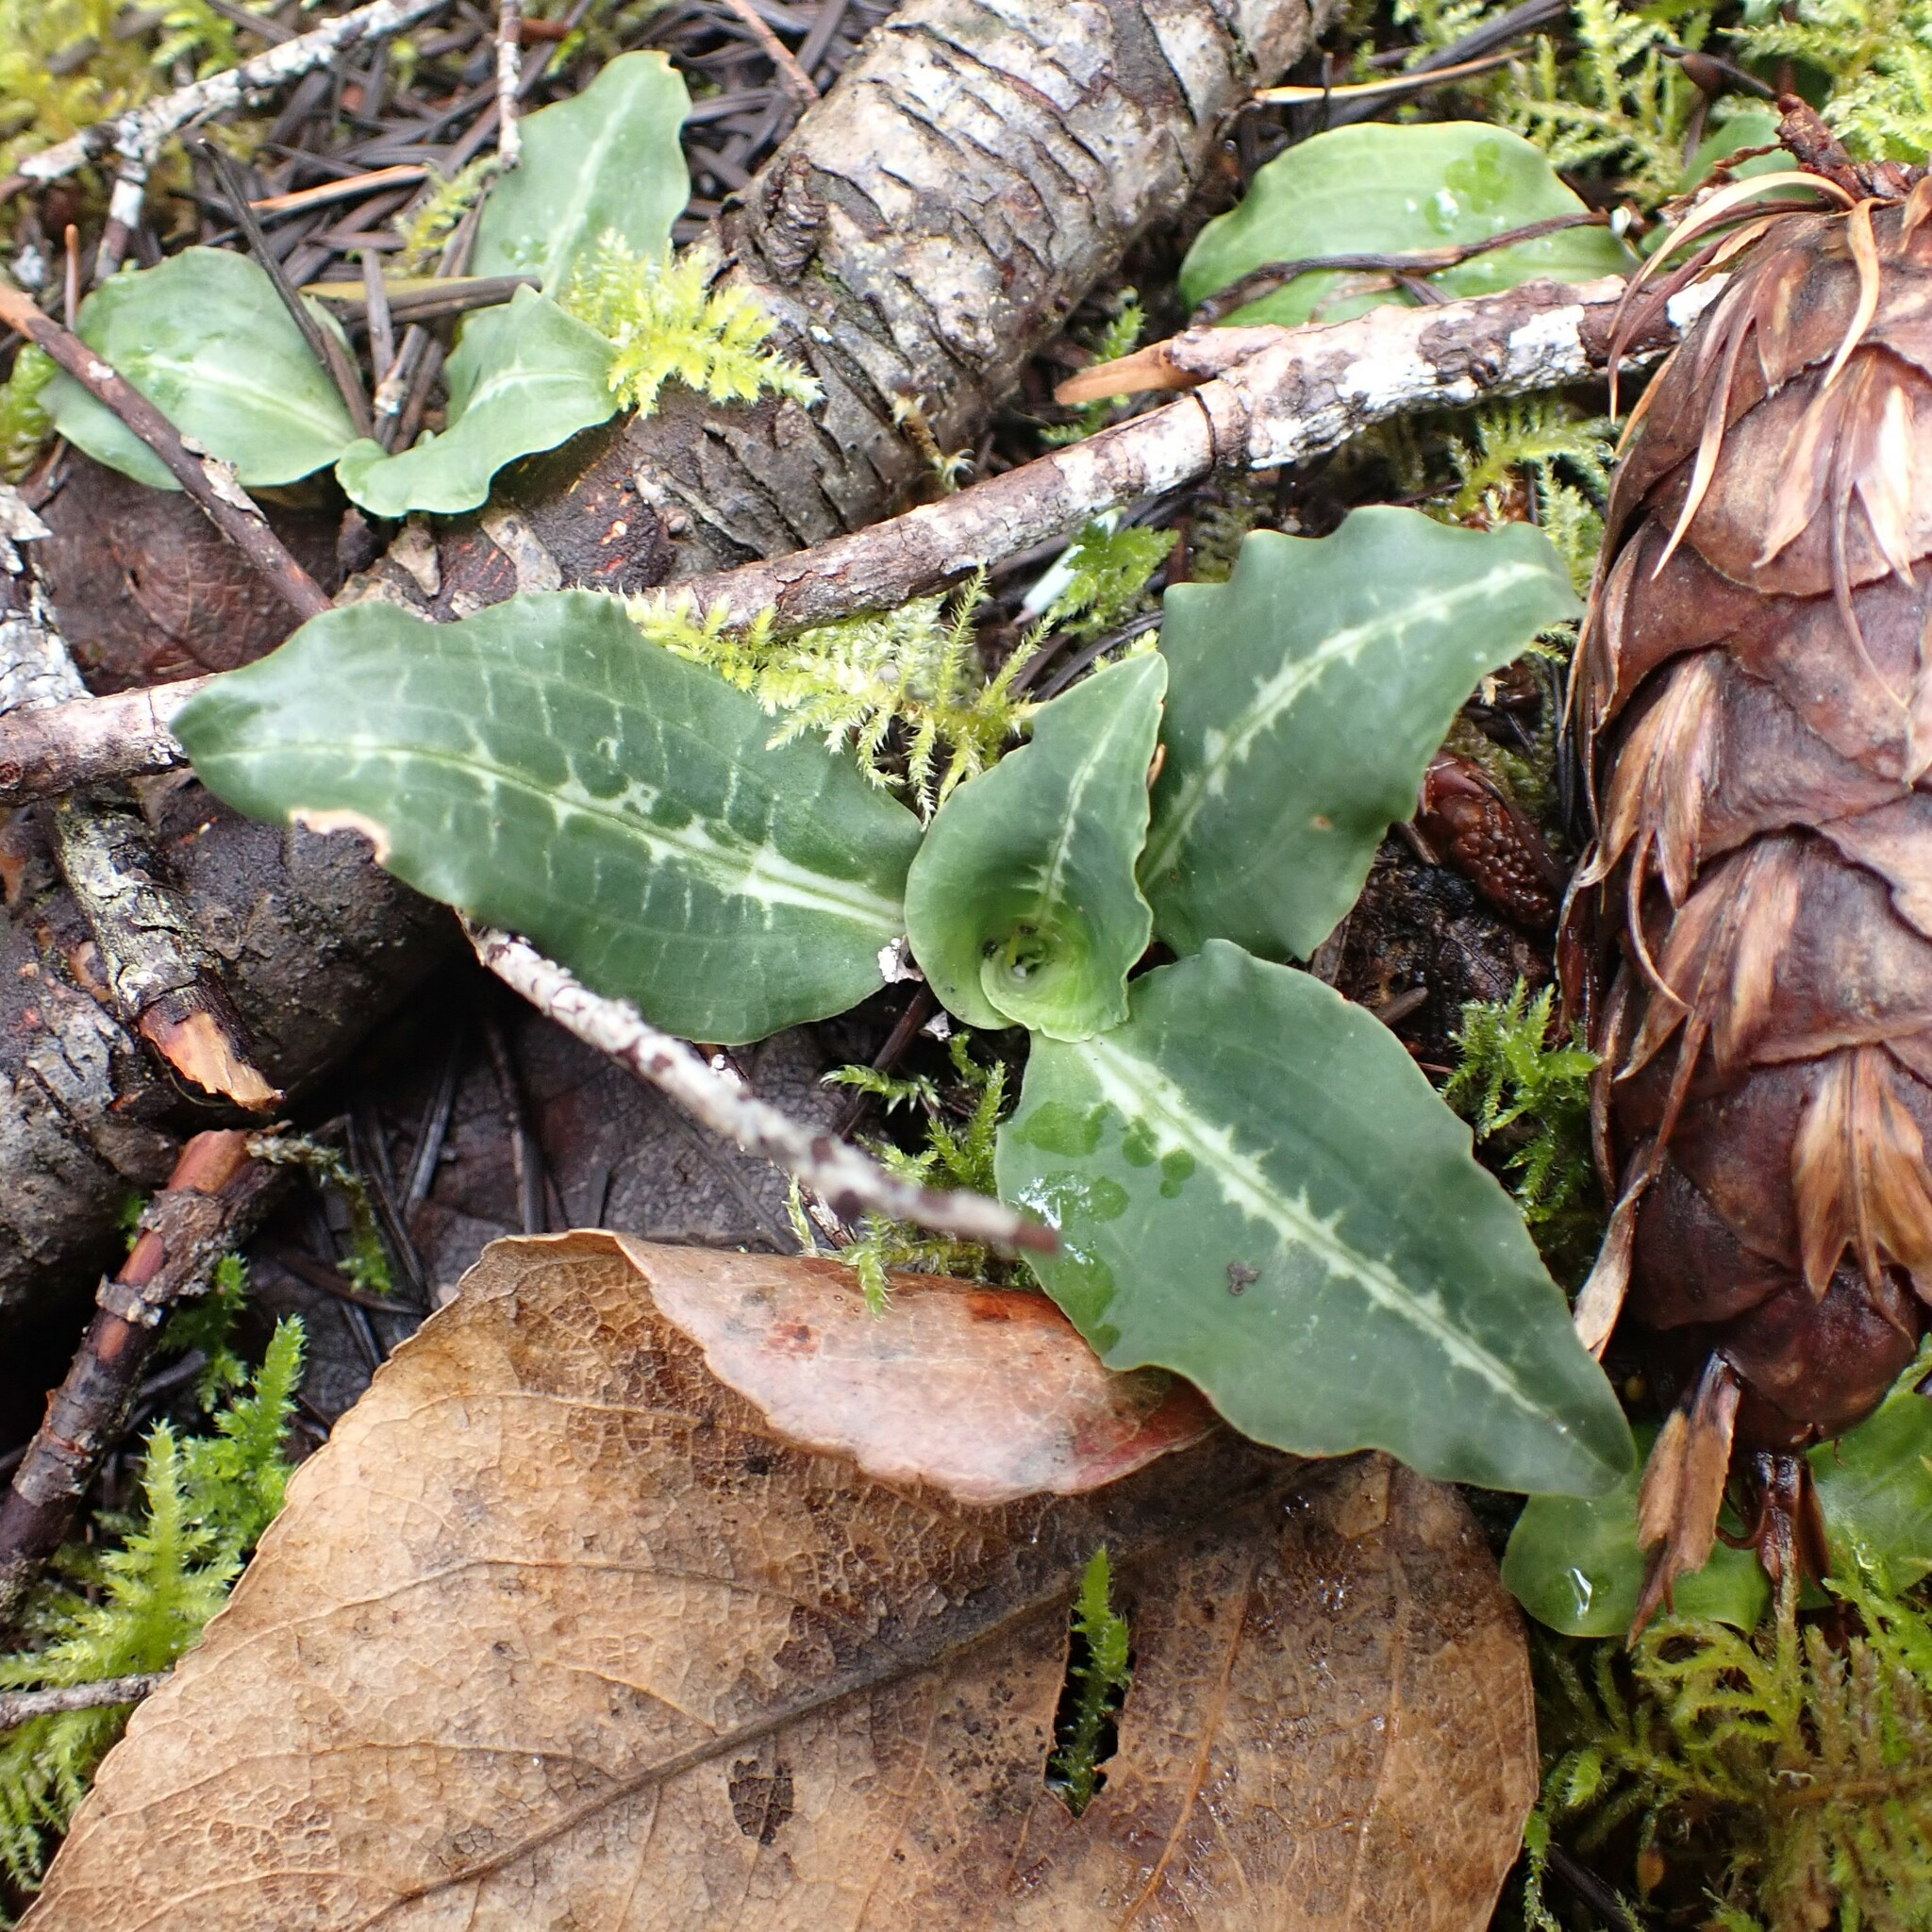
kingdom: Plantae
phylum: Tracheophyta
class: Liliopsida
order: Asparagales
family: Orchidaceae
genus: Goodyera
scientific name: Goodyera oblongifolia
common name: Giant rattlesnake-plantain
